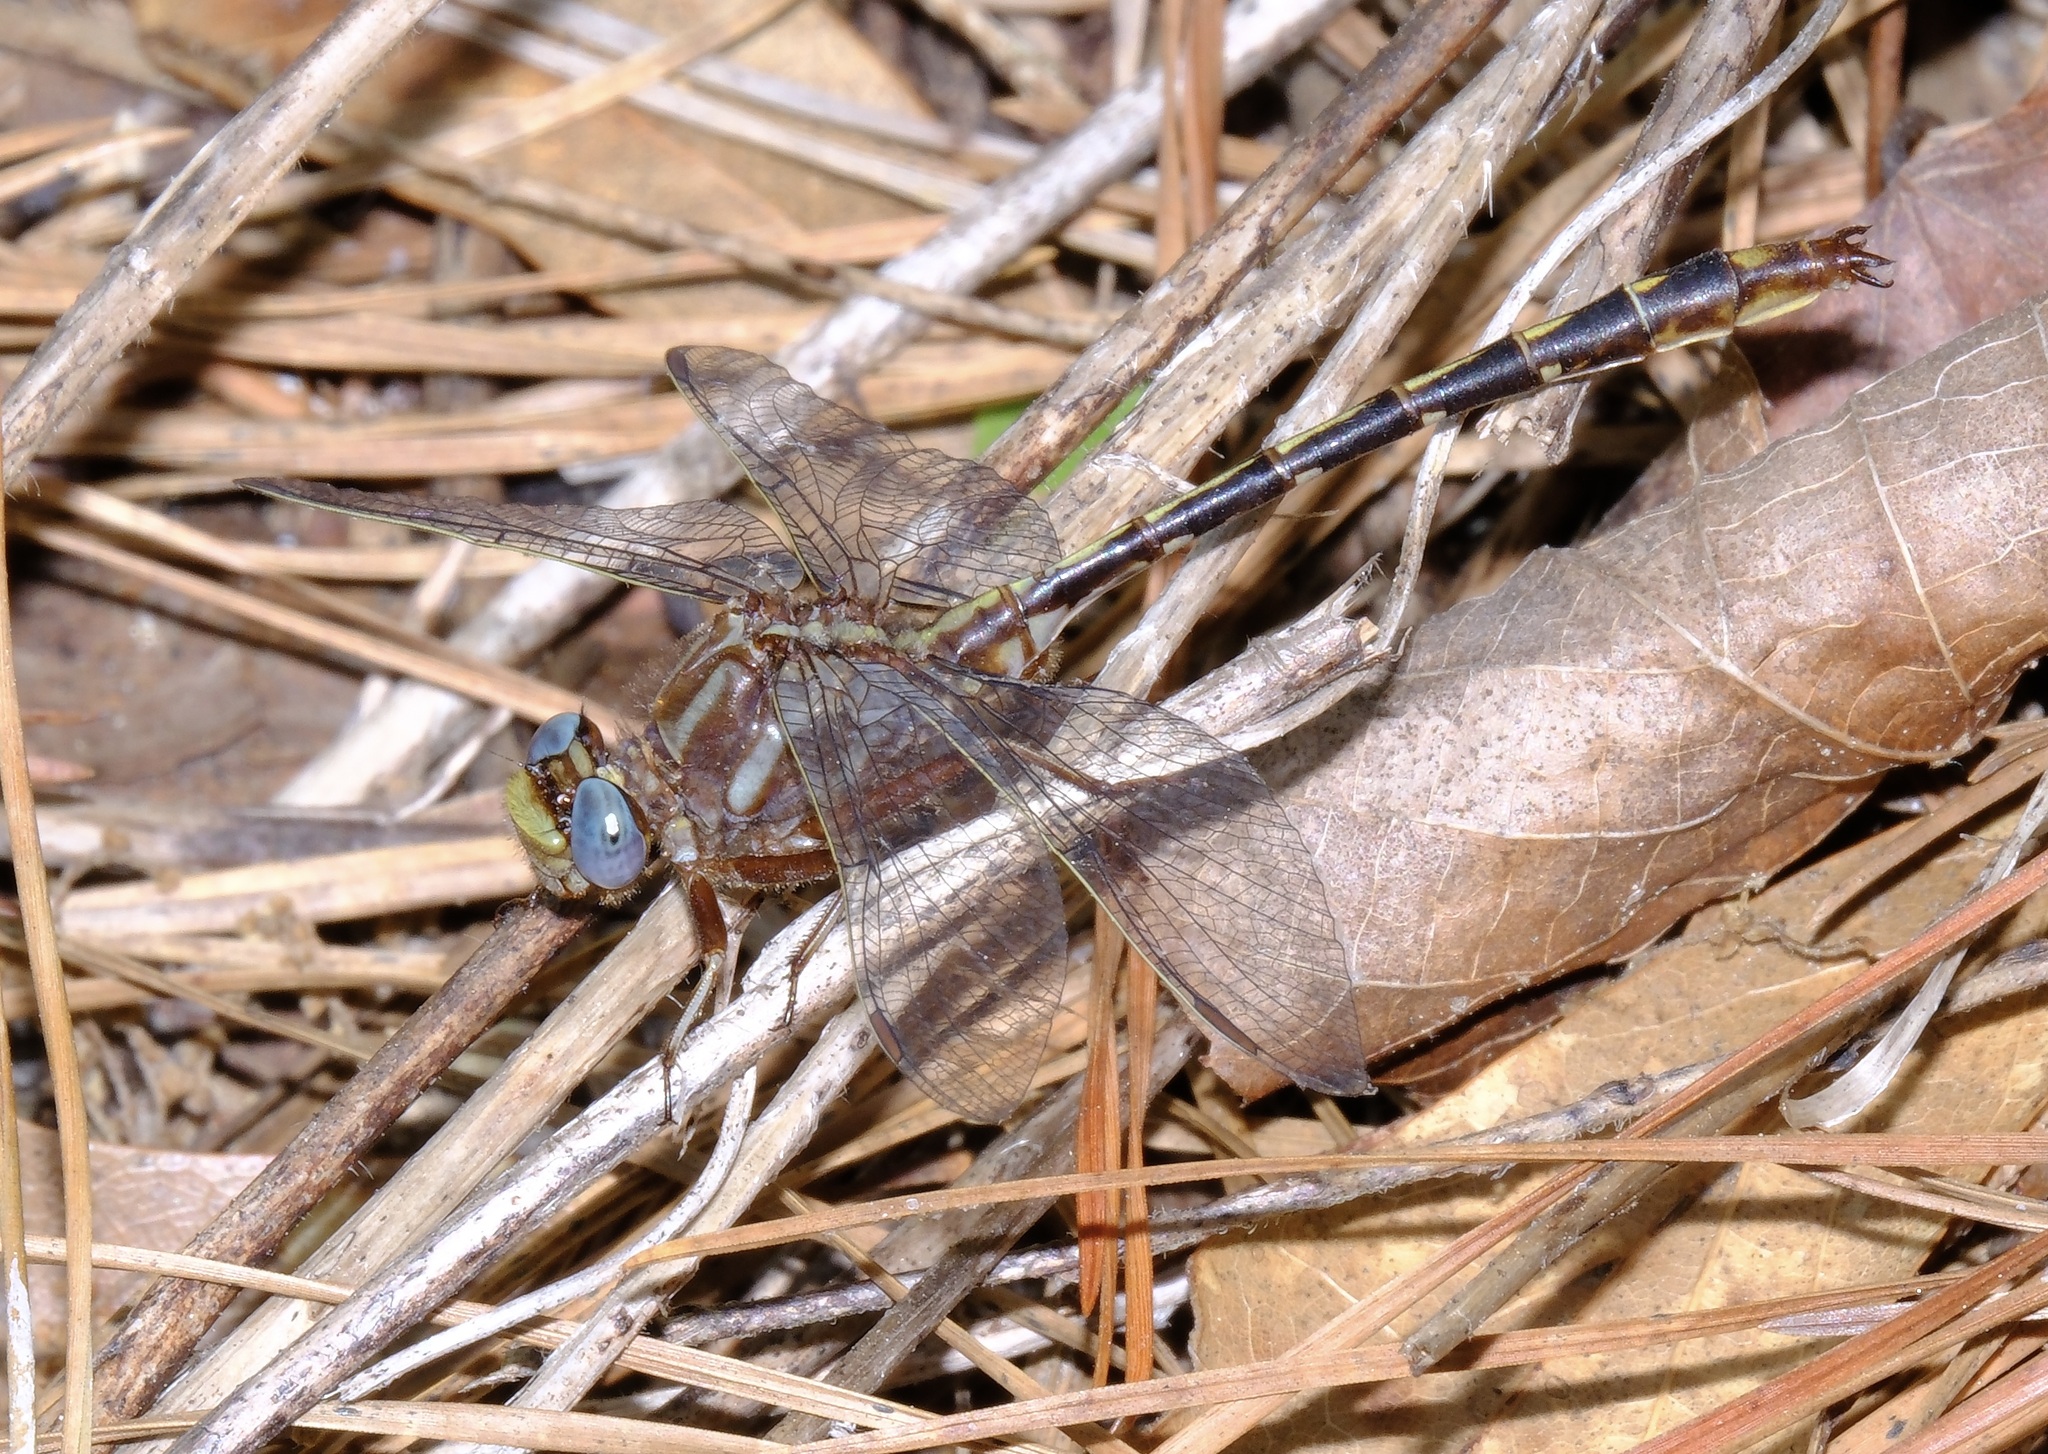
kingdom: Animalia
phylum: Arthropoda
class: Insecta
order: Odonata
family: Gomphidae
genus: Phanogomphus
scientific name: Phanogomphus lividus
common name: Ashy clubtail
